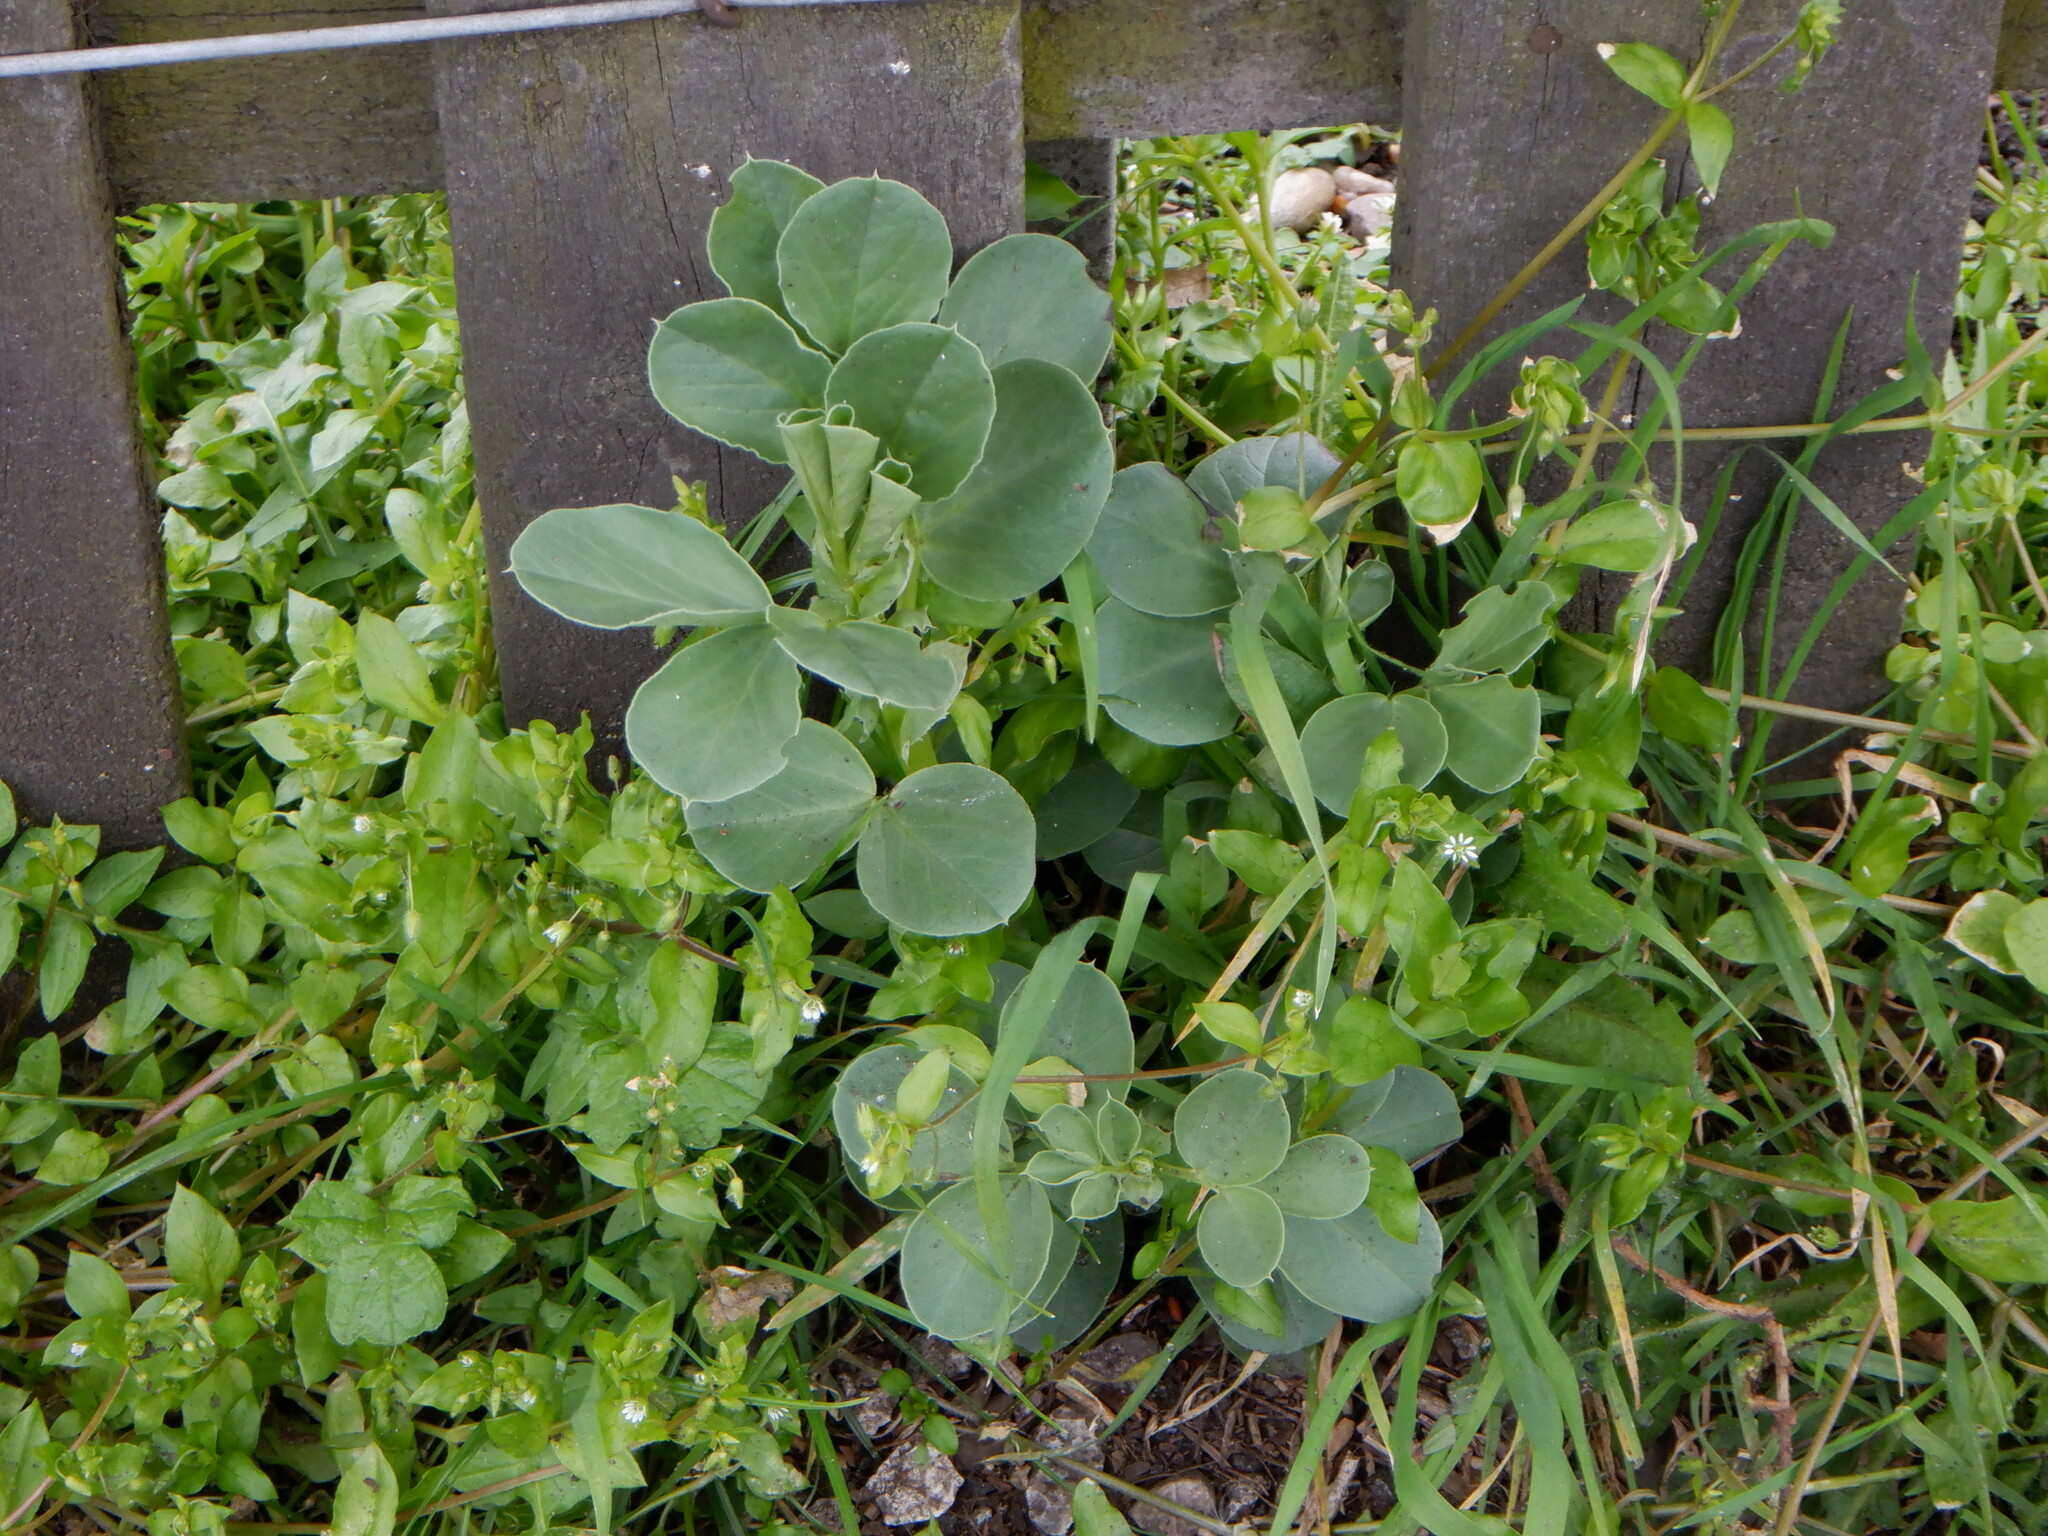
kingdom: Plantae
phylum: Tracheophyta
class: Magnoliopsida
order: Fabales
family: Fabaceae
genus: Vicia
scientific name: Vicia faba
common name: Broad bean
